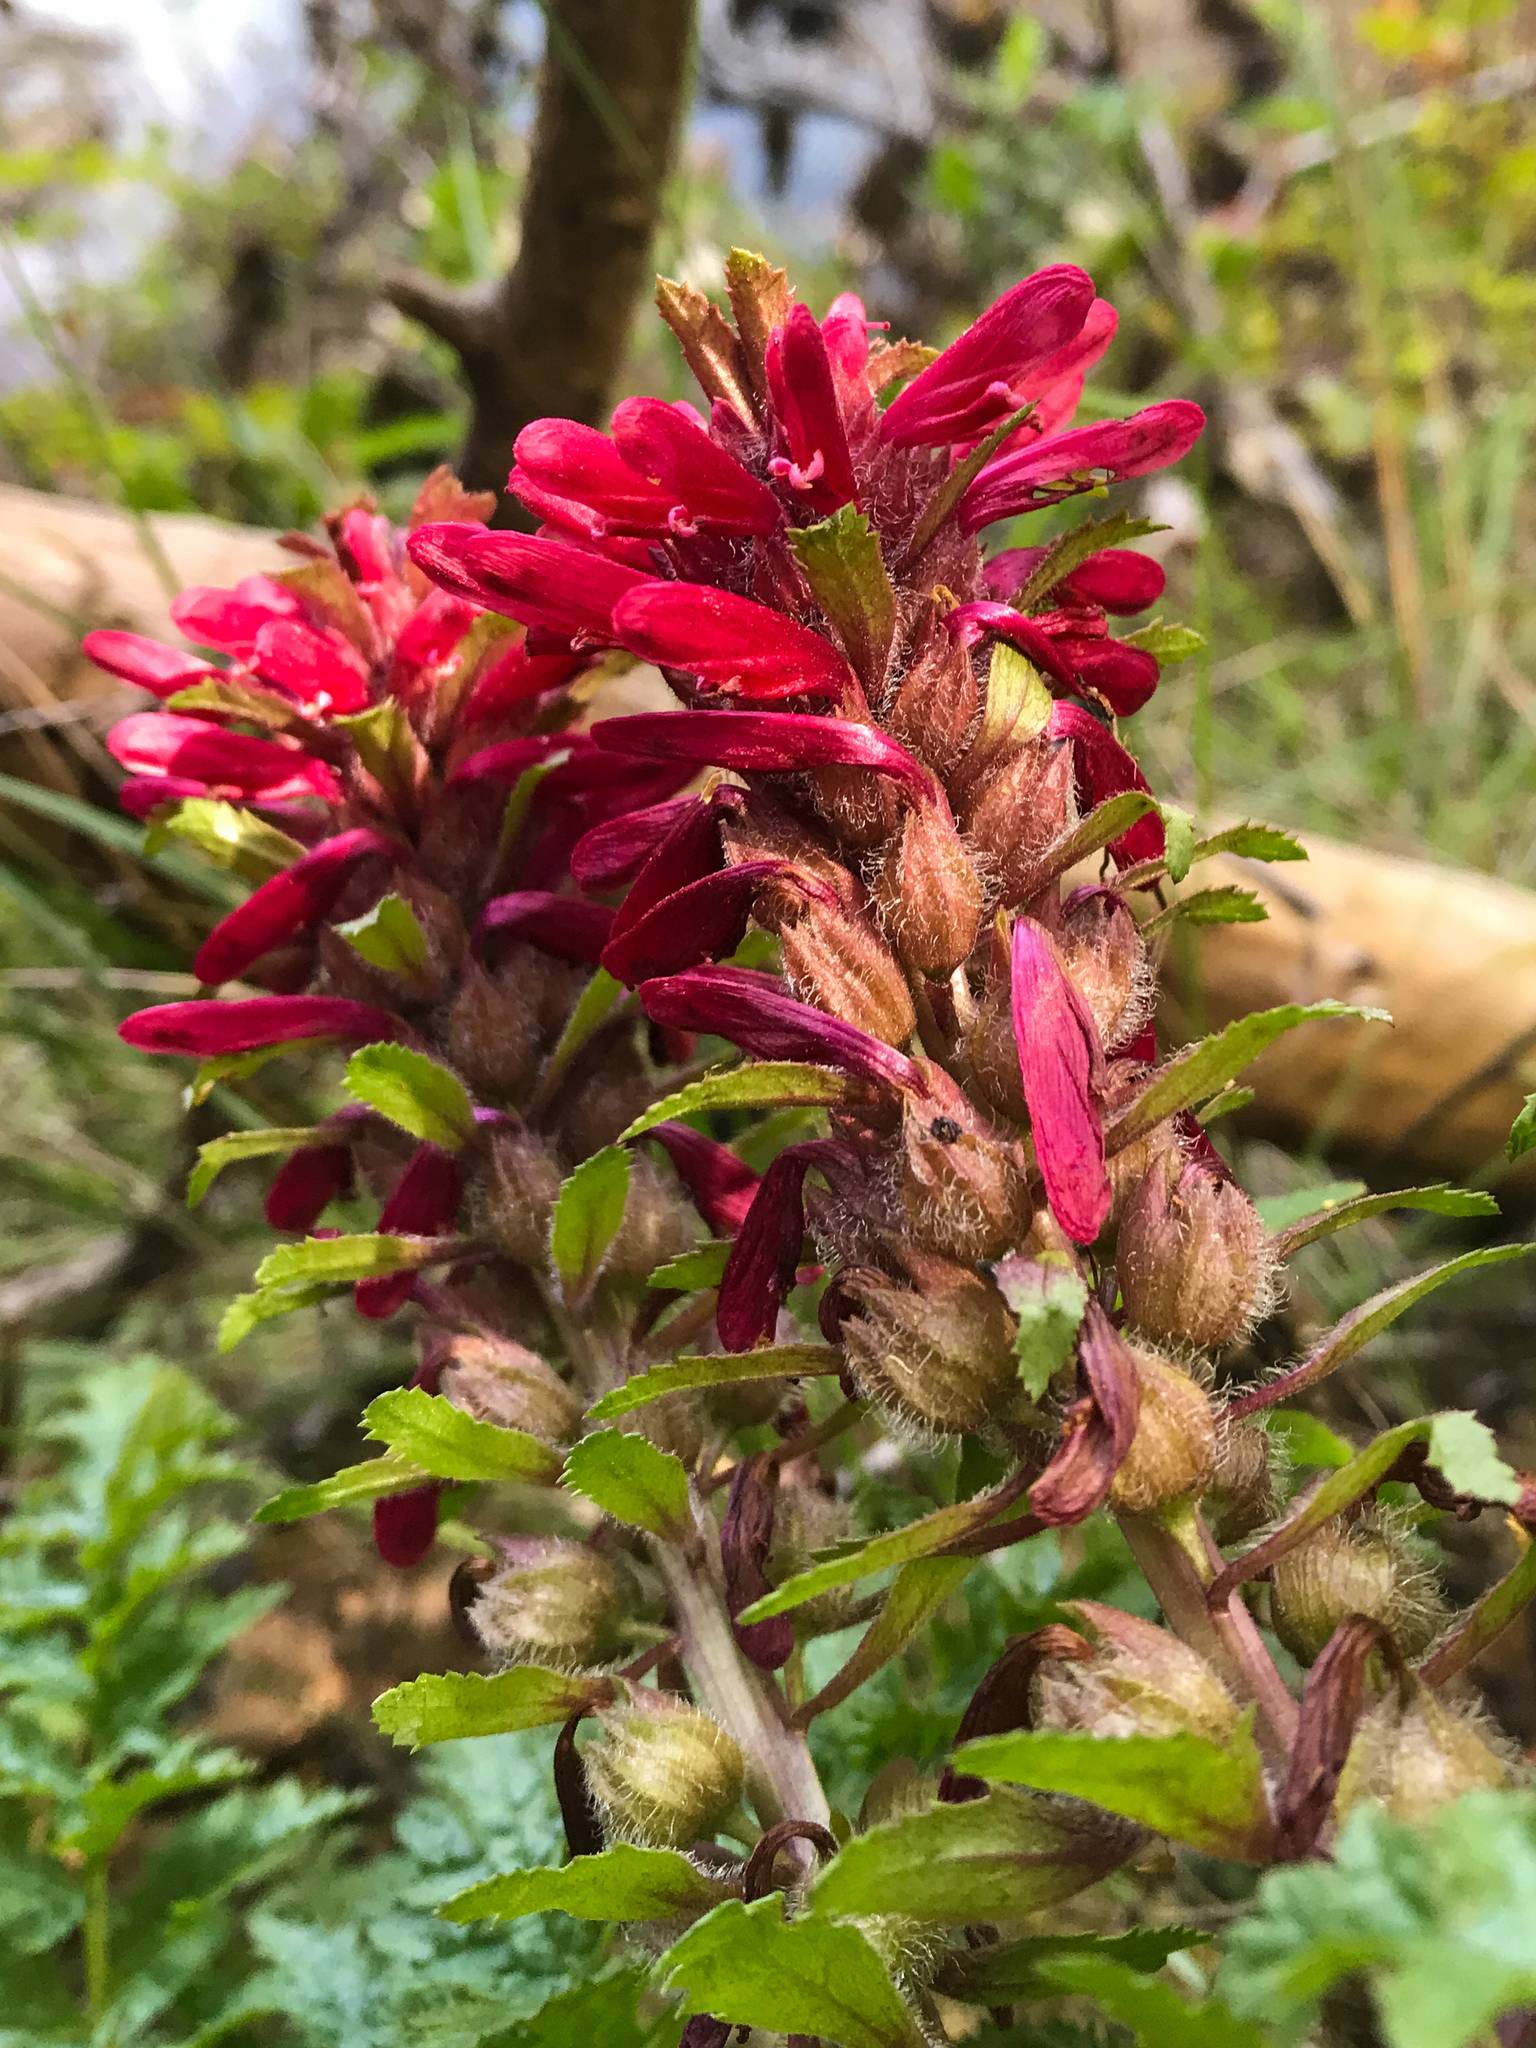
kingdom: Plantae
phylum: Tracheophyta
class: Magnoliopsida
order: Lamiales
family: Orobanchaceae
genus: Pedicularis
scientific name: Pedicularis densiflora
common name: Indian warrior
